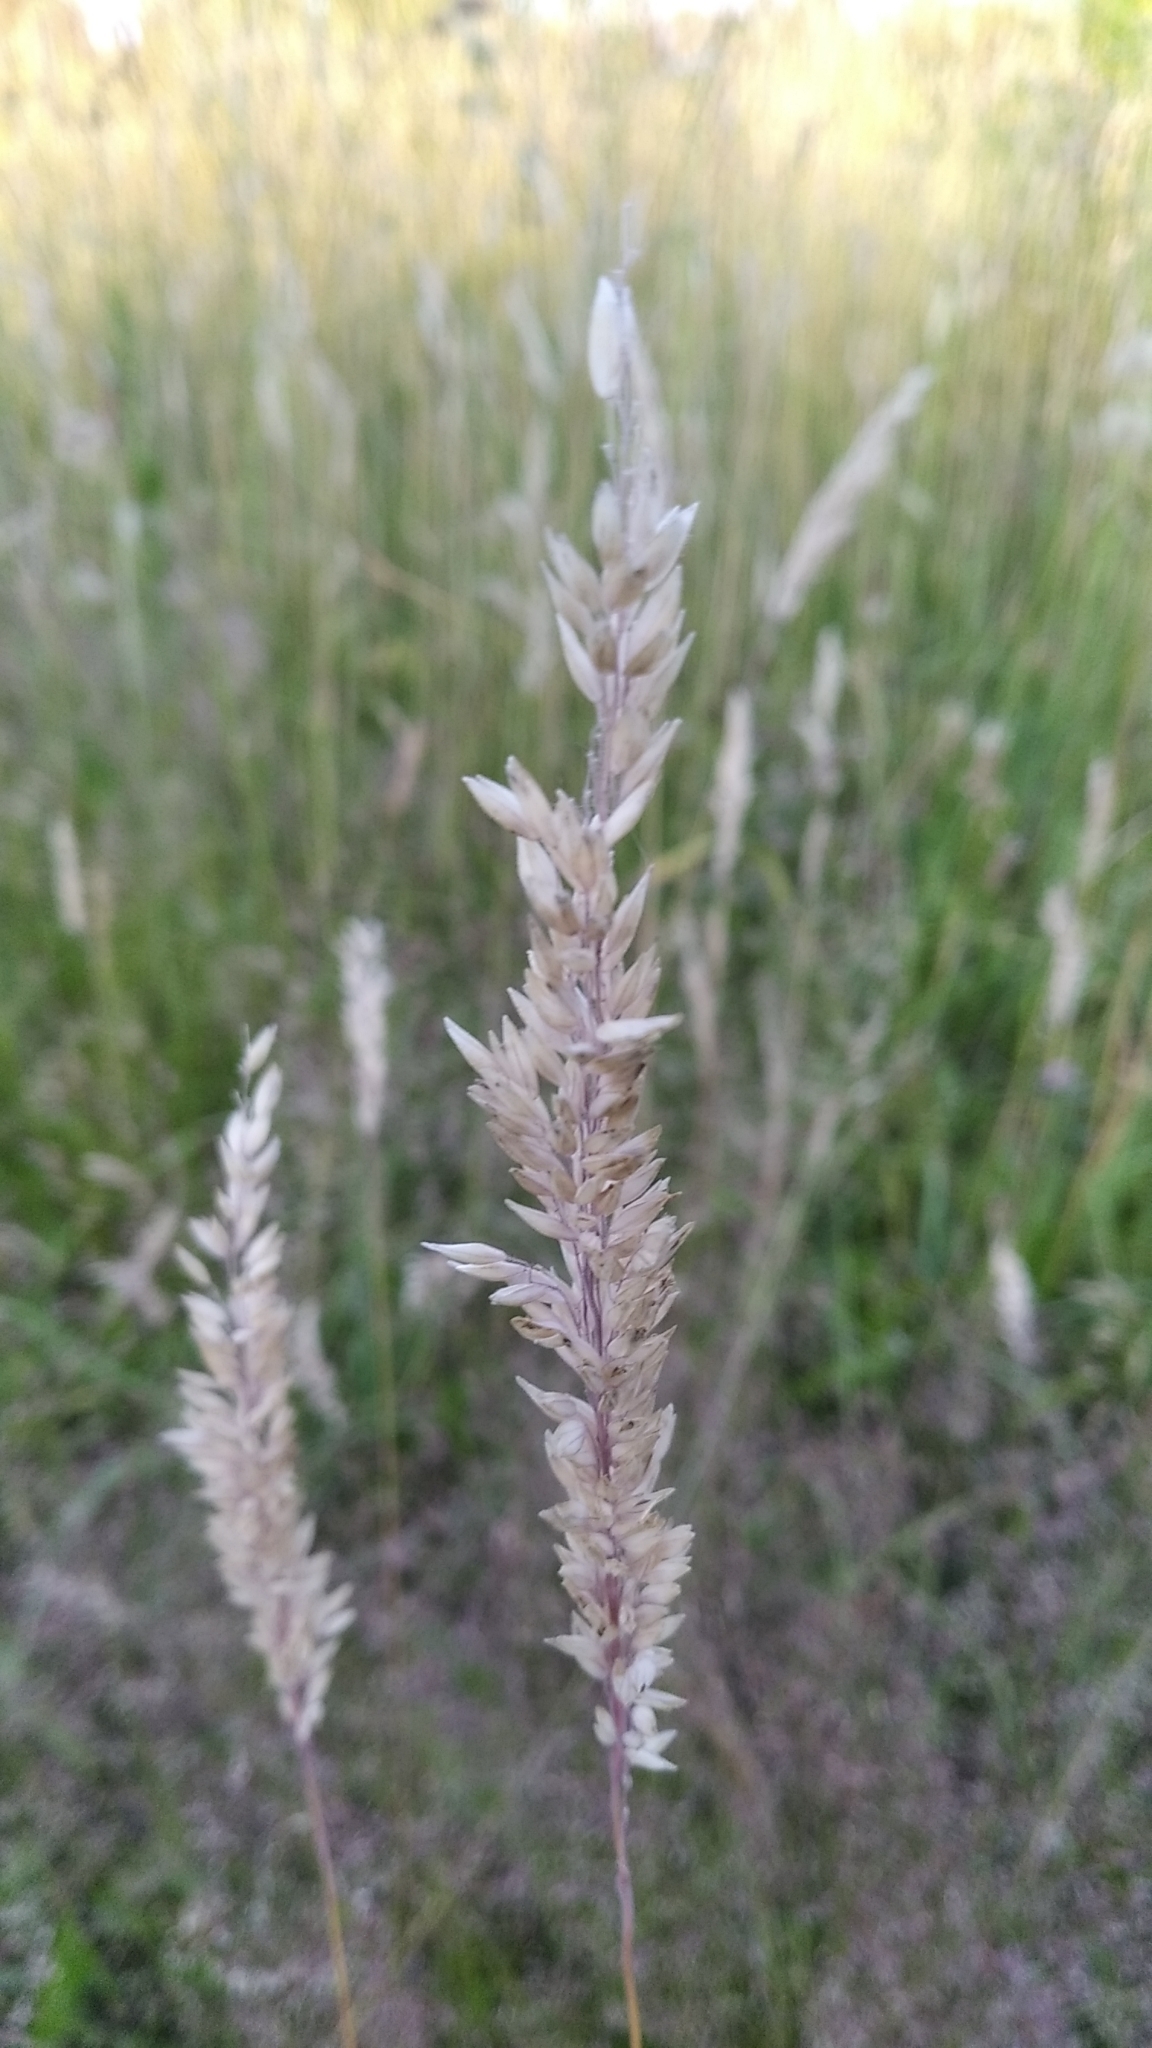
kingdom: Plantae
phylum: Tracheophyta
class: Liliopsida
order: Poales
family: Poaceae
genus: Holcus
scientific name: Holcus lanatus
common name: Yorkshire-fog
